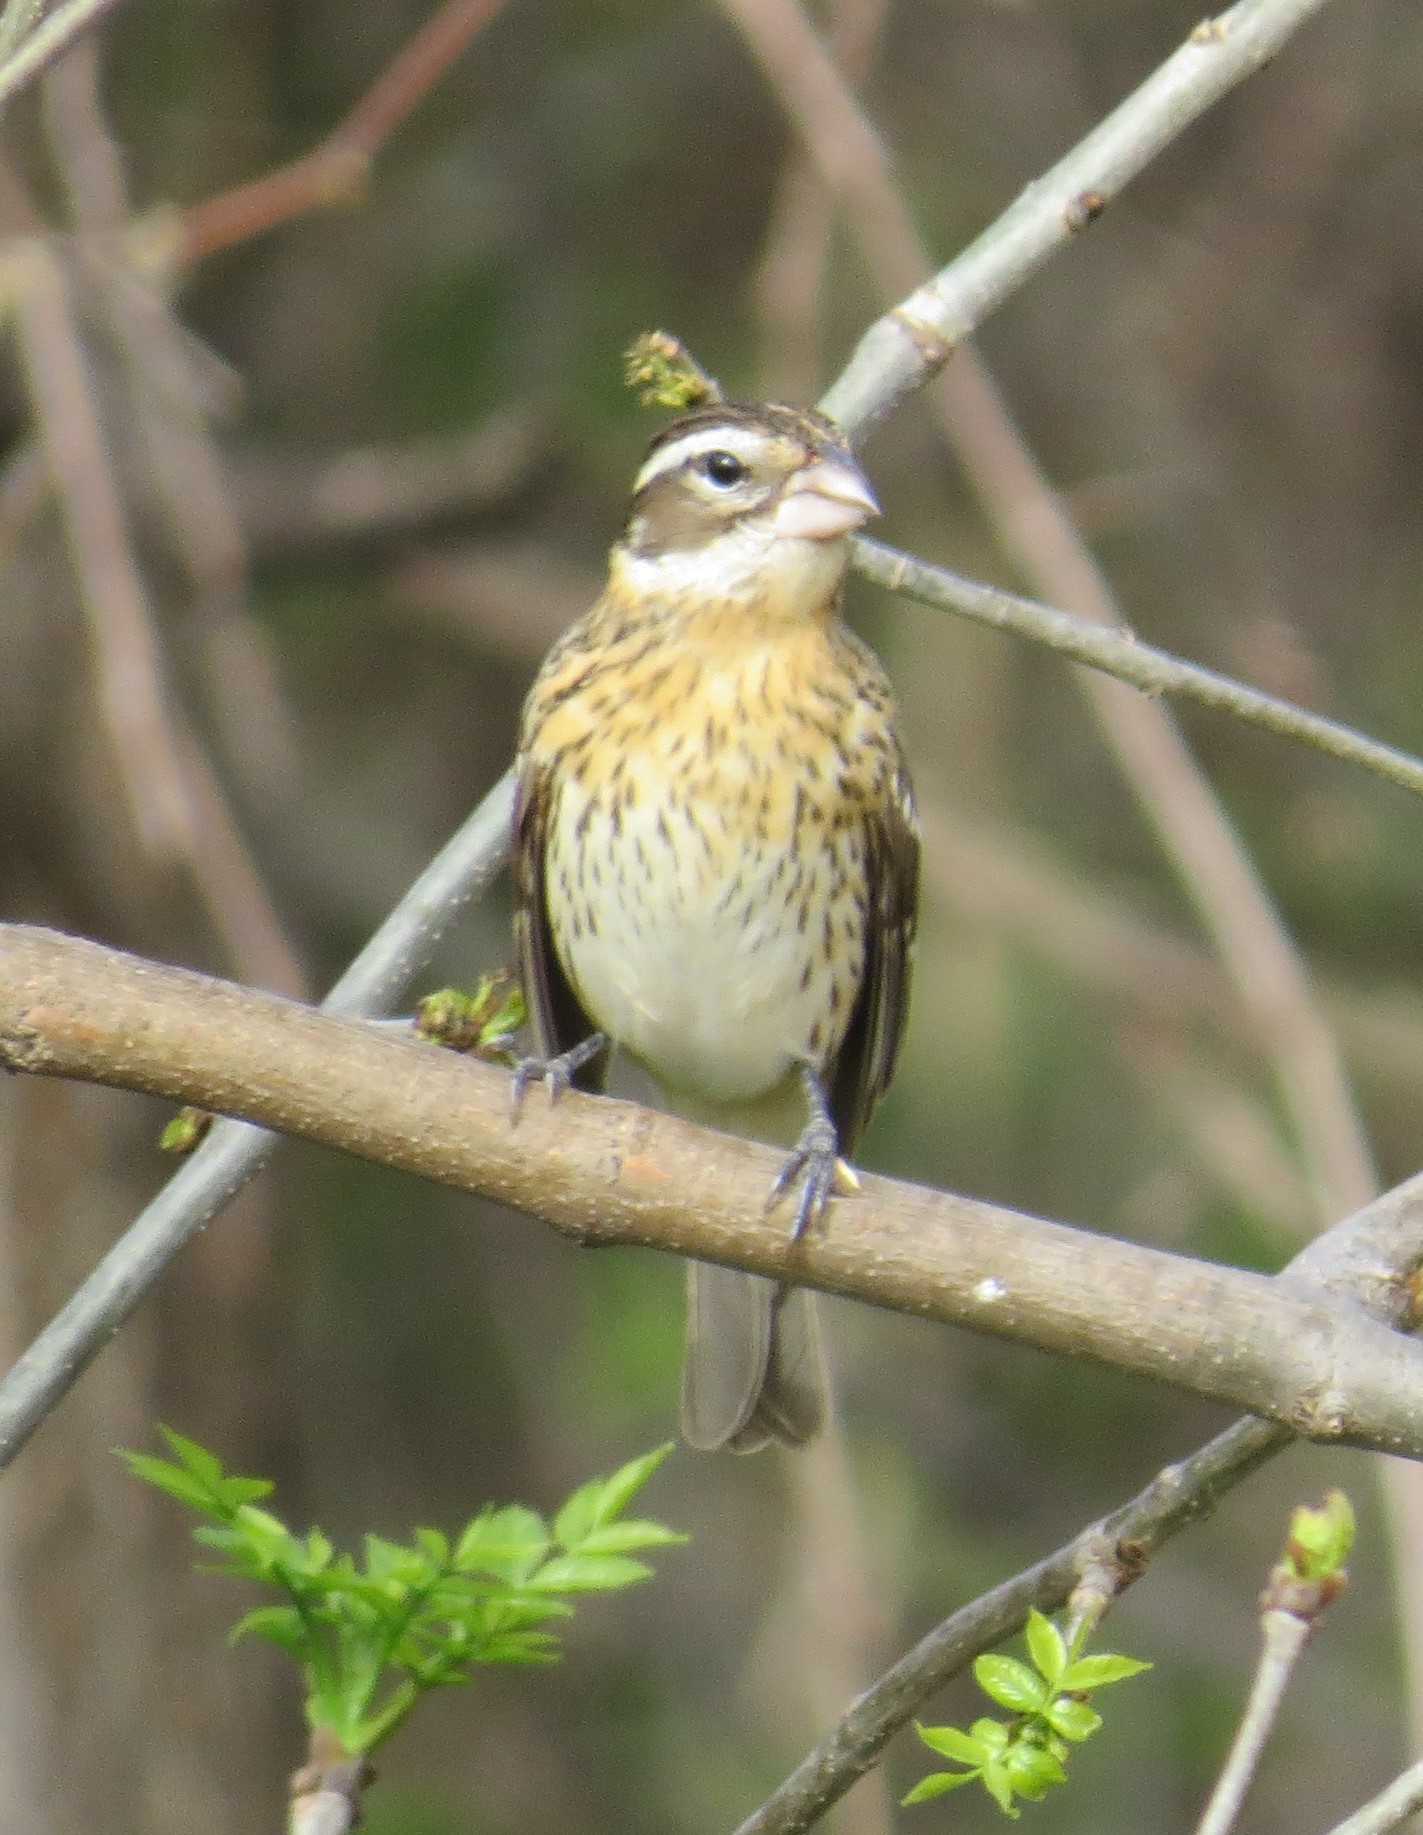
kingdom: Animalia
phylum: Chordata
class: Aves
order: Passeriformes
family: Cardinalidae
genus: Pheucticus
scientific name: Pheucticus ludovicianus
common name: Rose-breasted grosbeak
